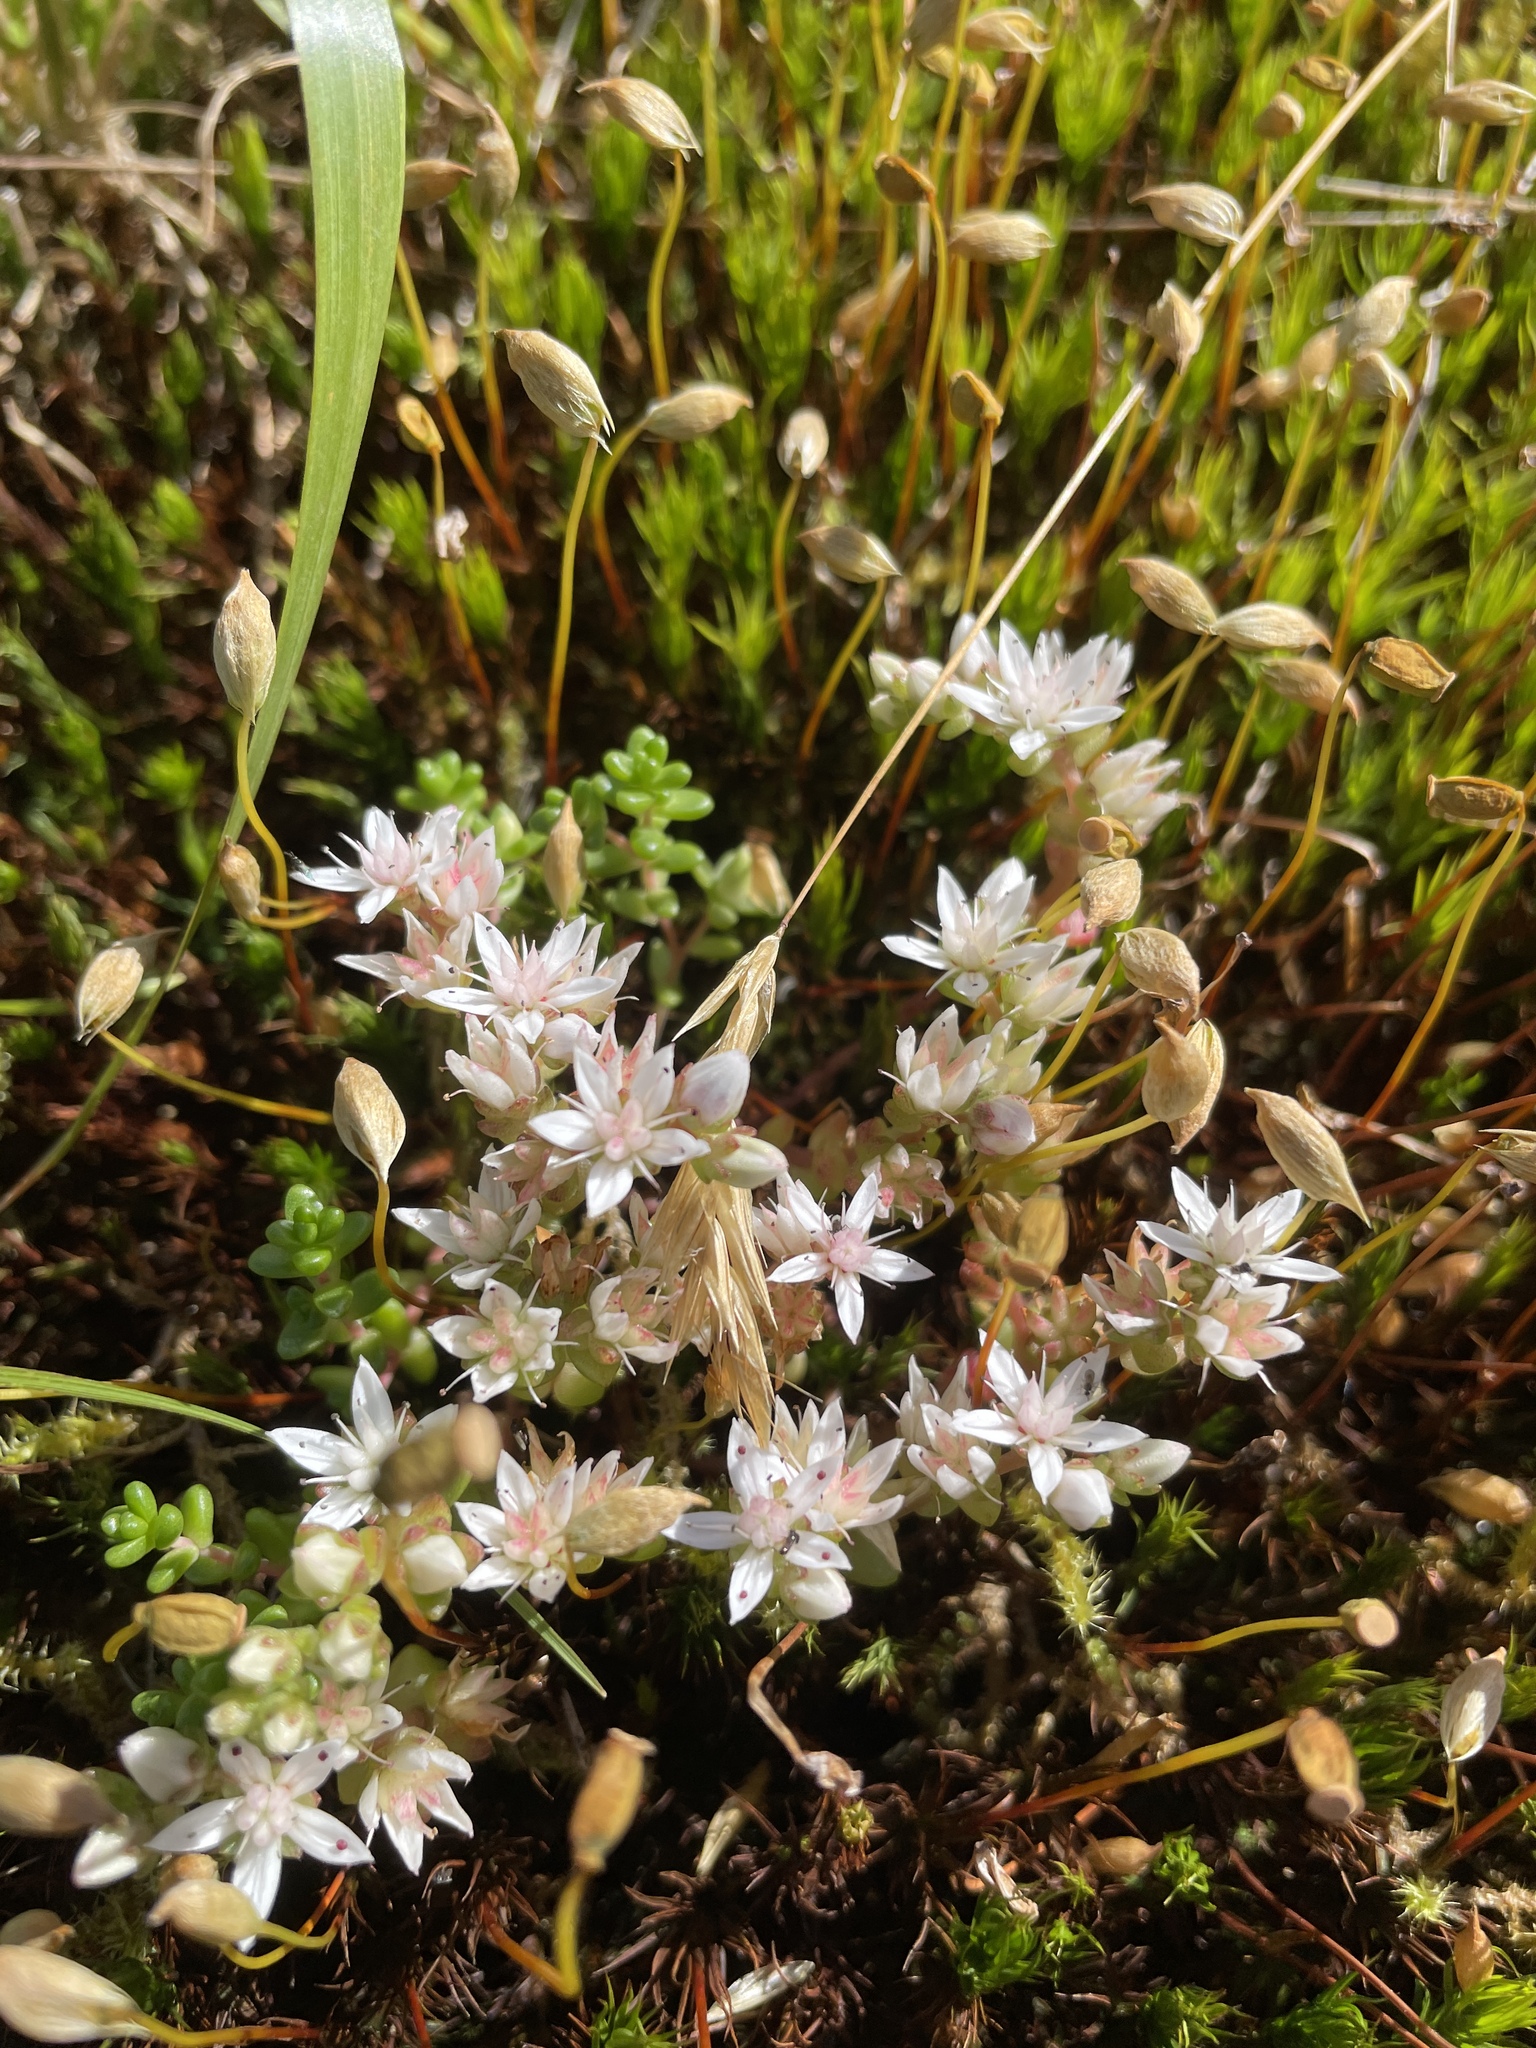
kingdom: Plantae
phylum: Tracheophyta
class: Magnoliopsida
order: Saxifragales
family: Crassulaceae
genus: Sedum
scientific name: Sedum anglicum
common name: English stonecrop
